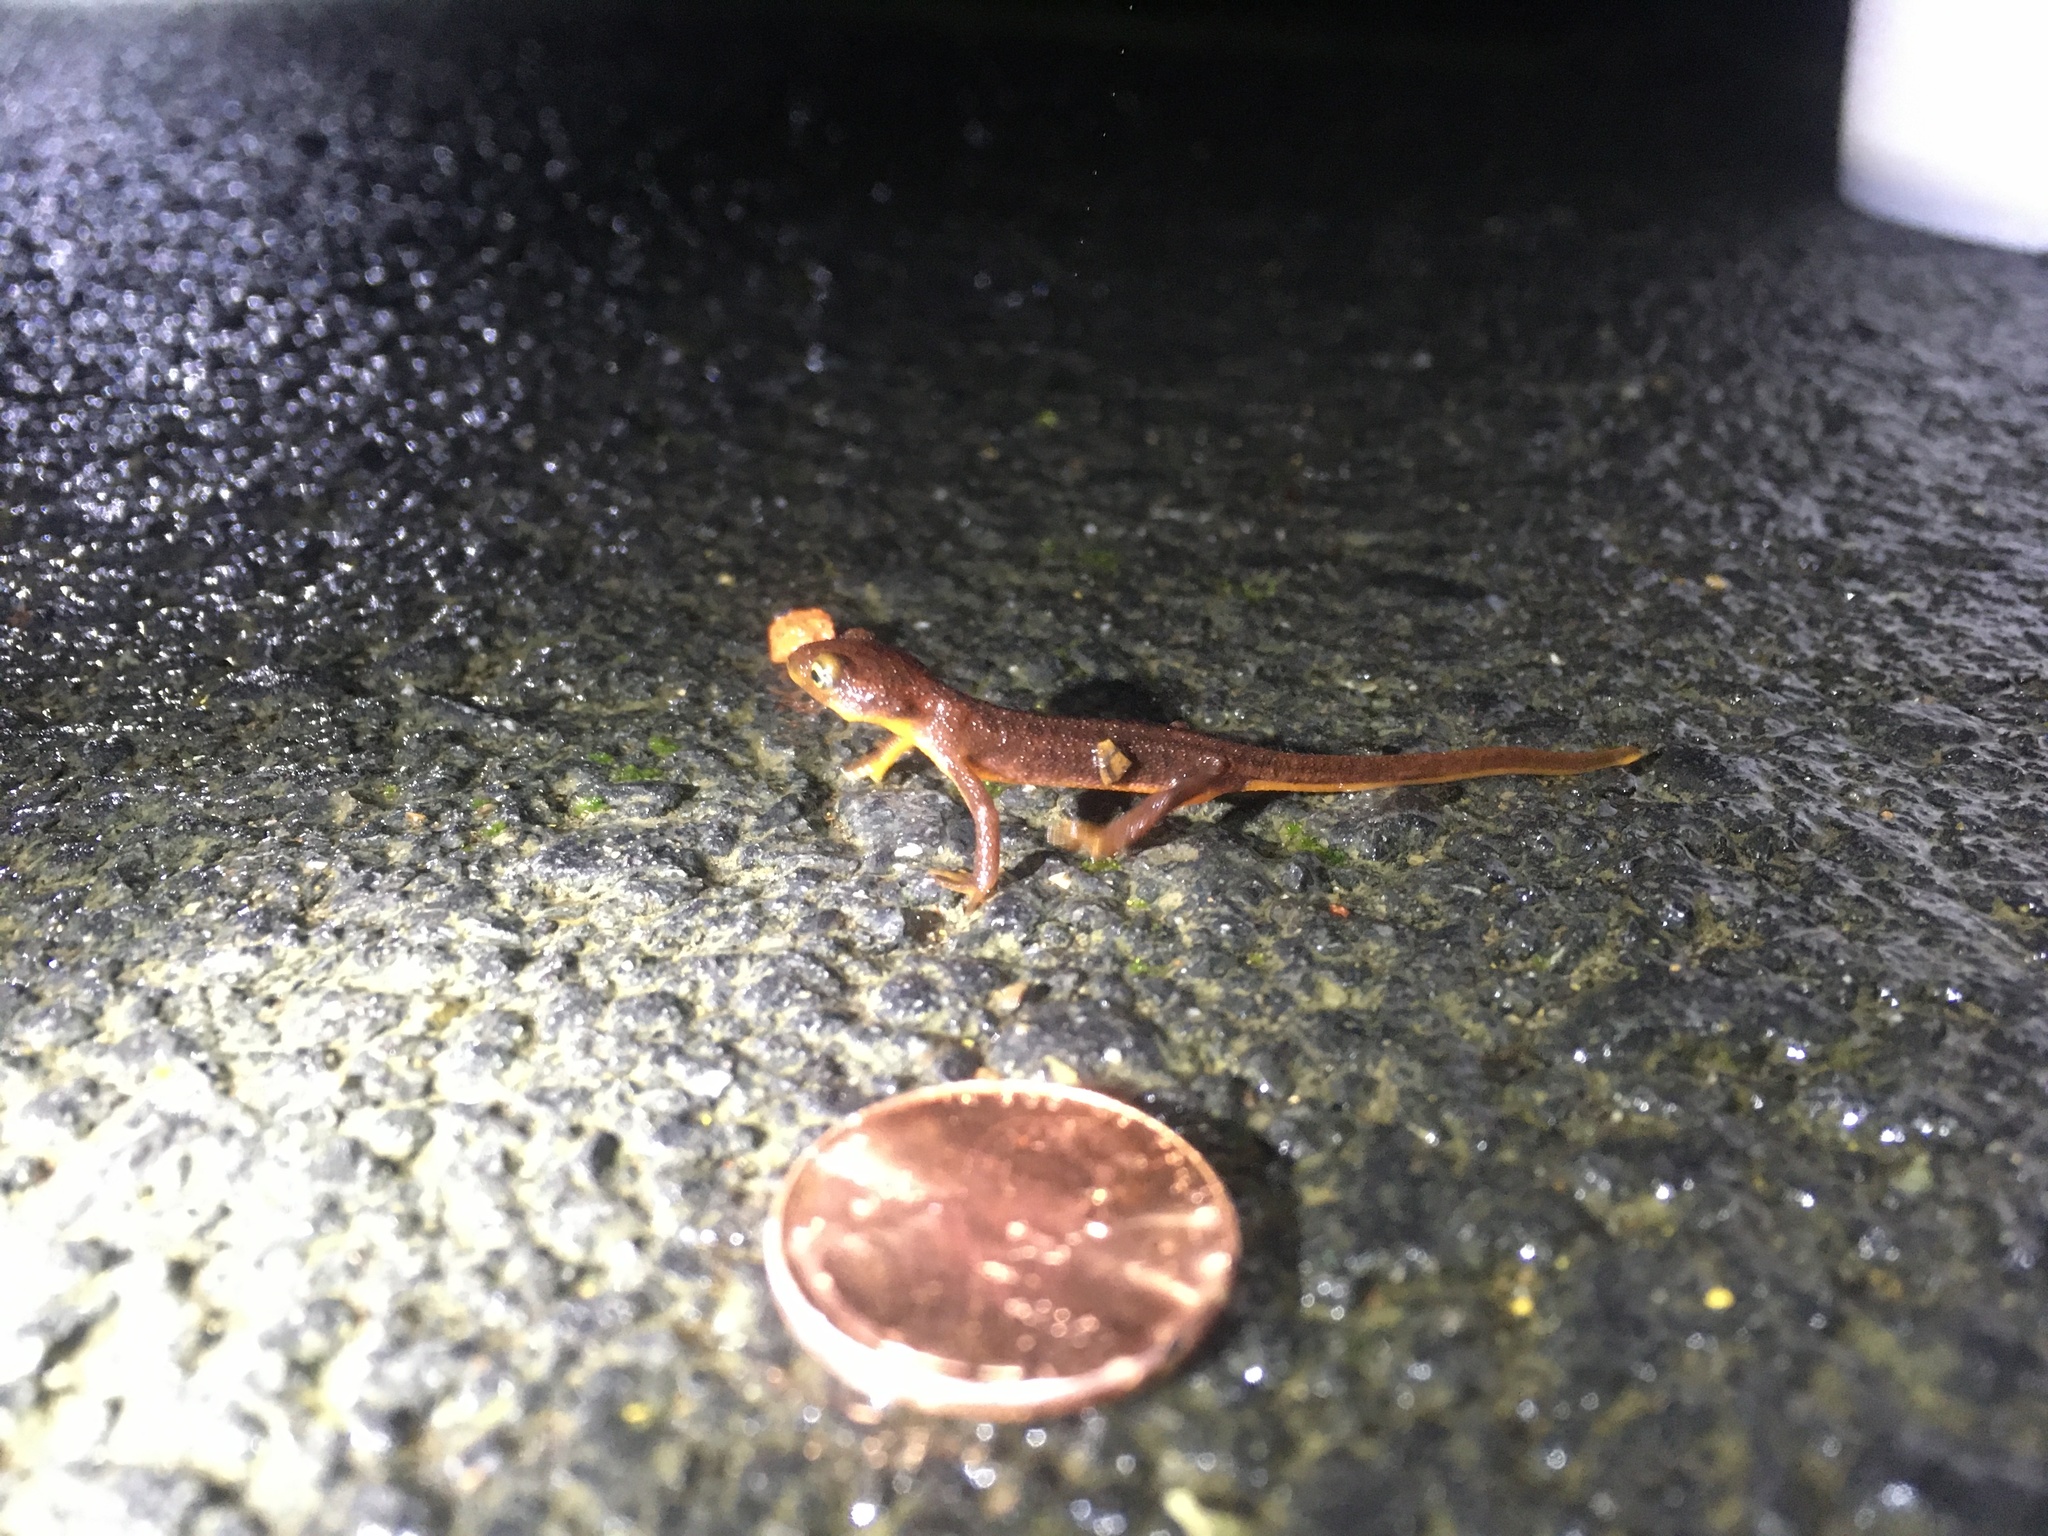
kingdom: Animalia
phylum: Chordata
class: Amphibia
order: Caudata
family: Salamandridae
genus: Taricha
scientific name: Taricha torosa
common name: California newt
